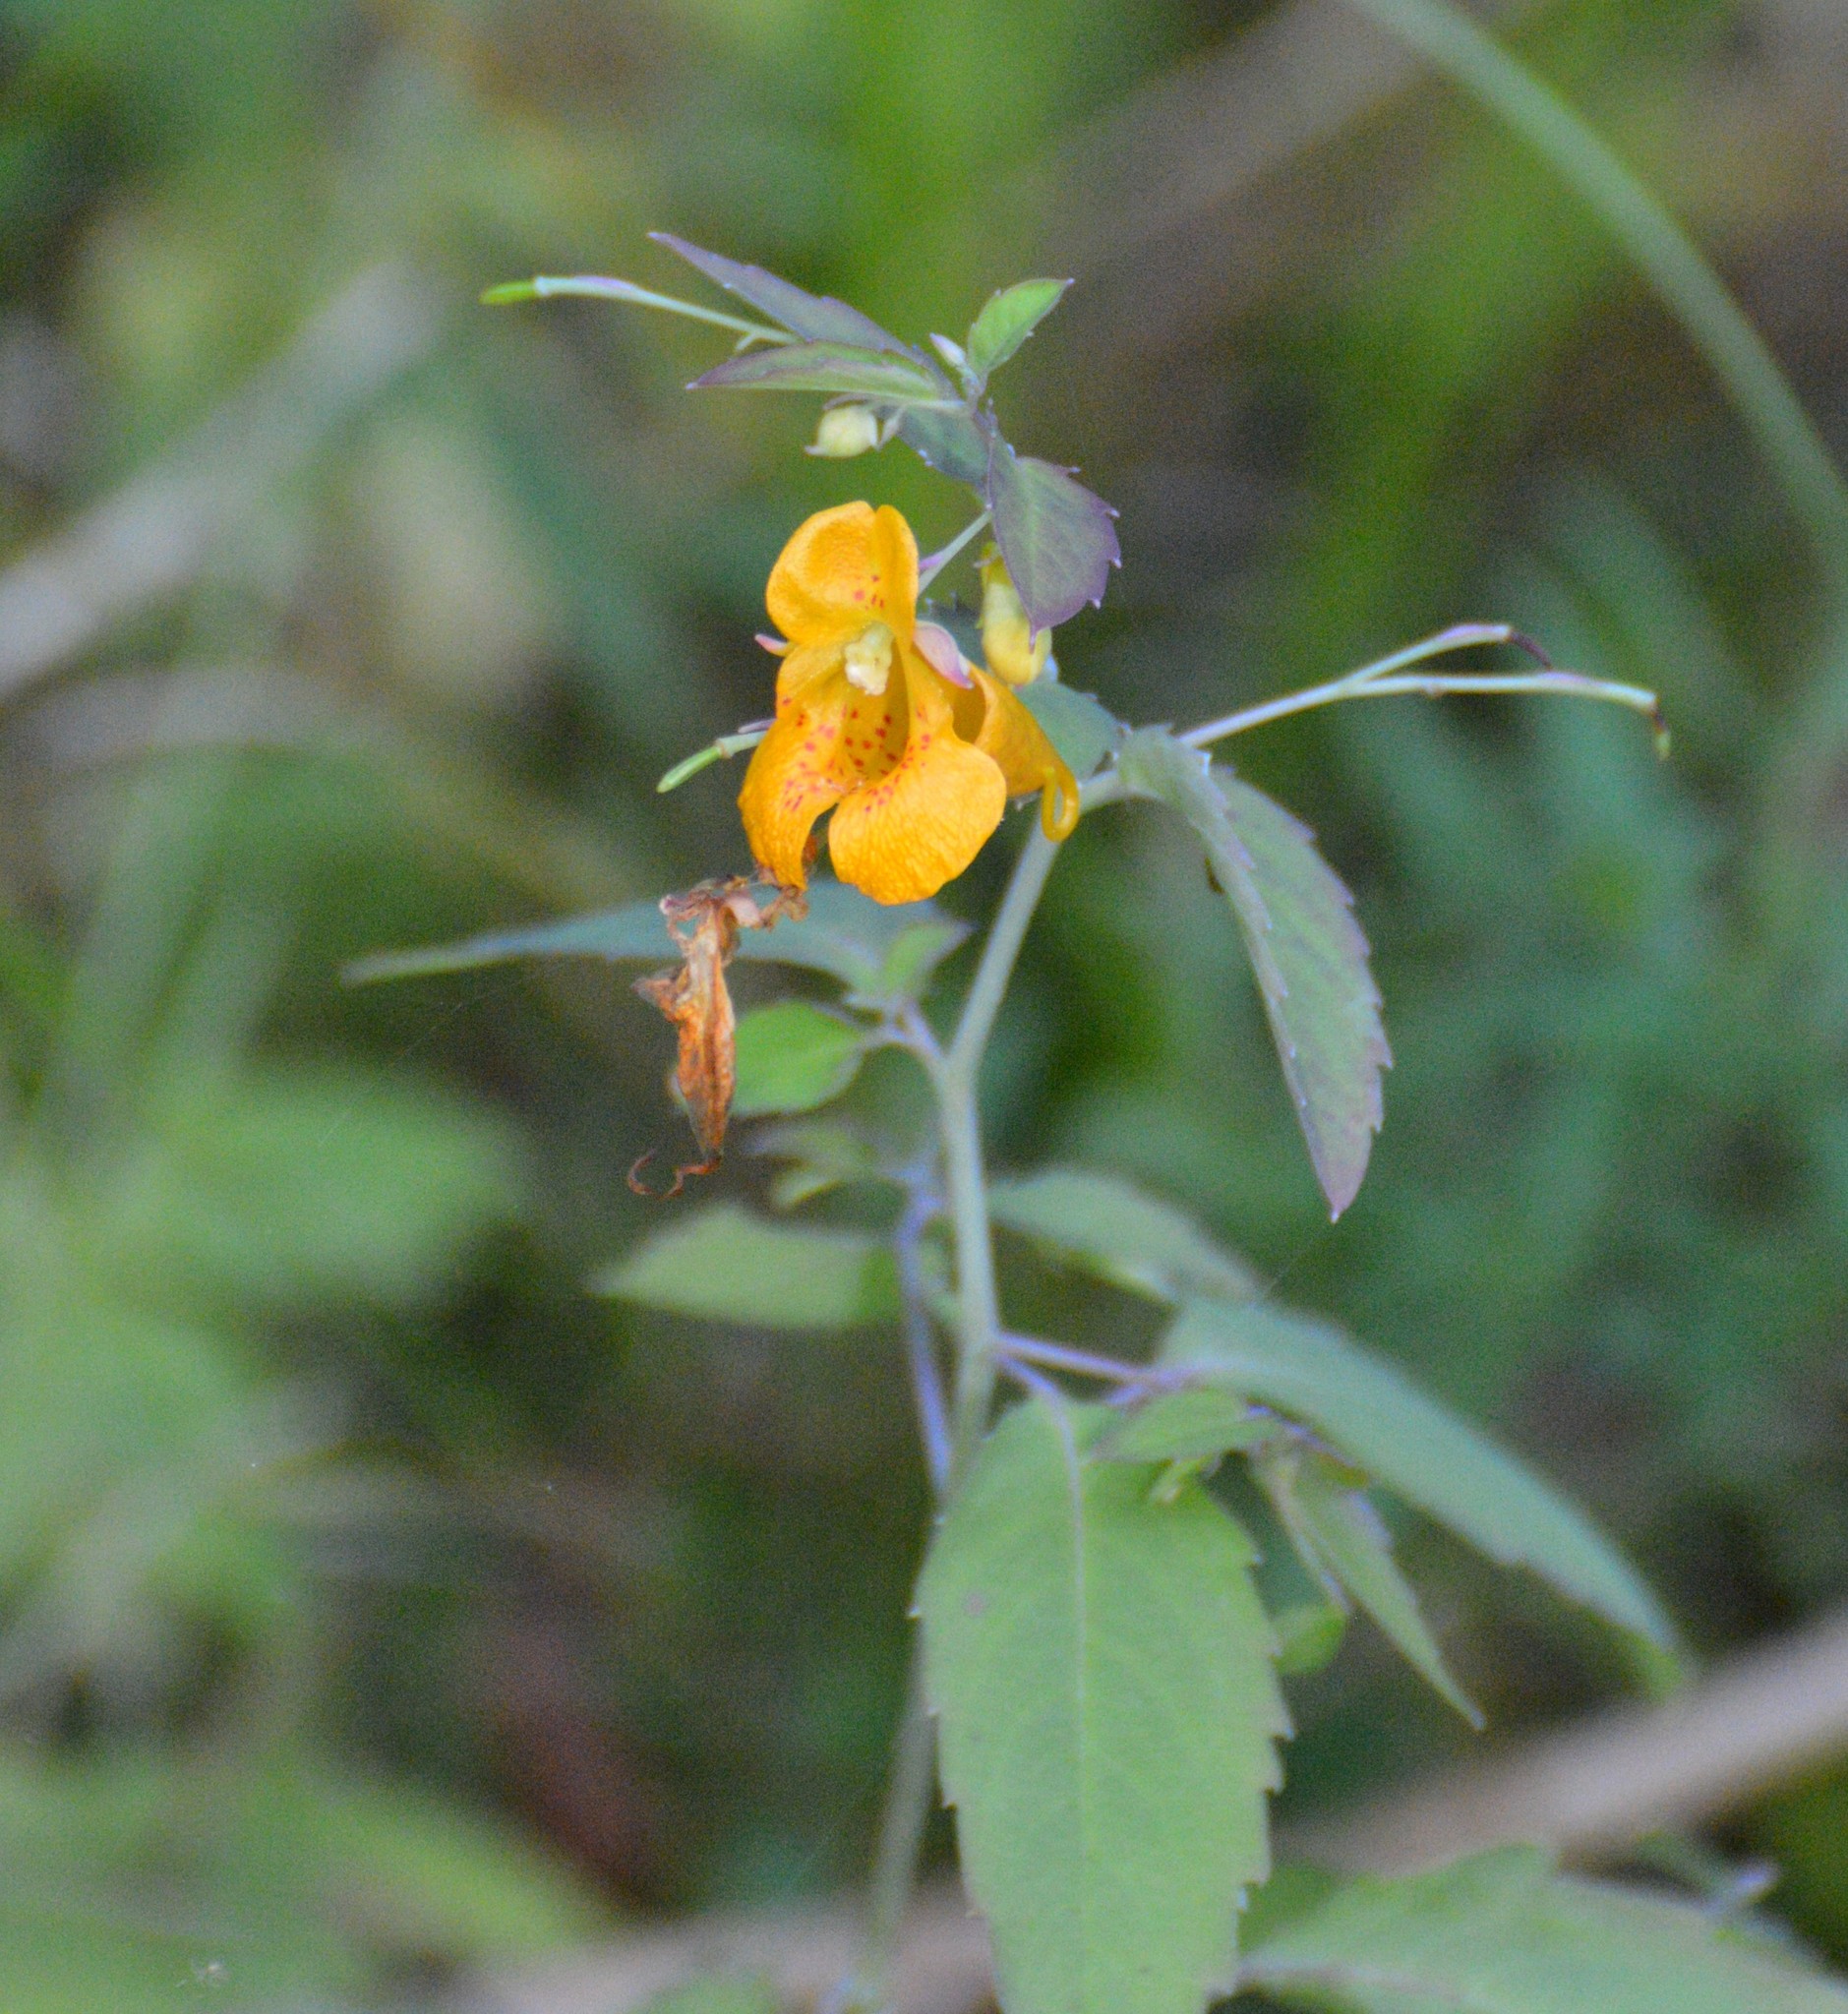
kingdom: Plantae
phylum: Tracheophyta
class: Magnoliopsida
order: Ericales
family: Balsaminaceae
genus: Impatiens
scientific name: Impatiens capensis
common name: Orange balsam
